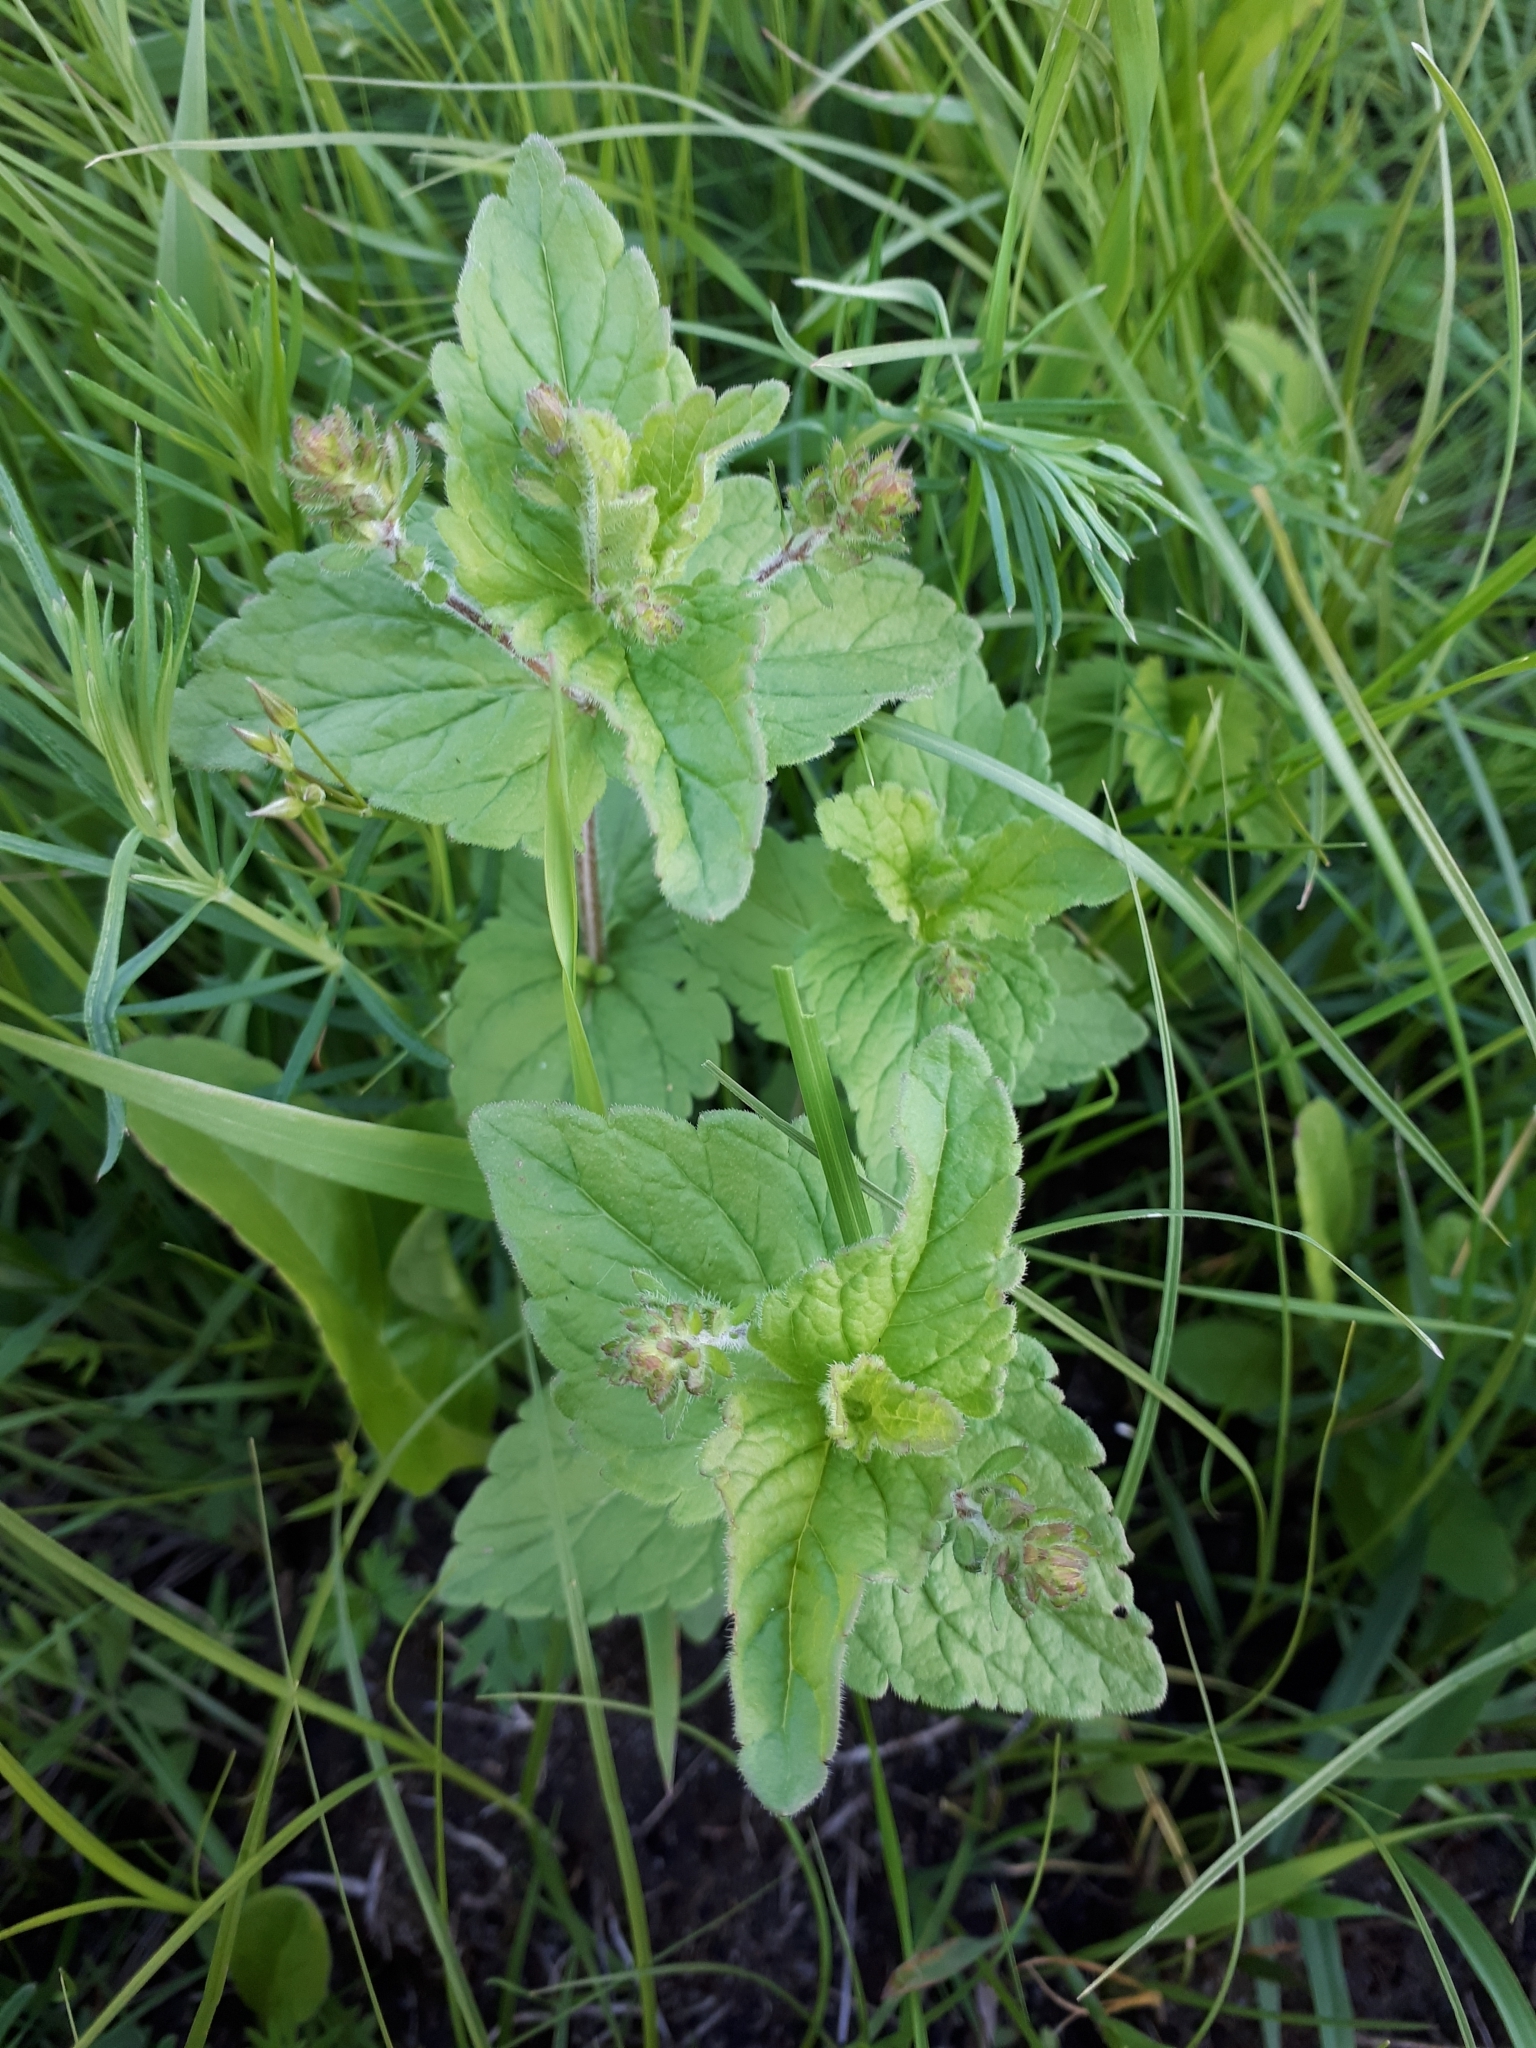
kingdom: Plantae
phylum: Tracheophyta
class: Magnoliopsida
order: Lamiales
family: Plantaginaceae
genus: Veronica
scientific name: Veronica chamaedrys
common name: Germander speedwell
